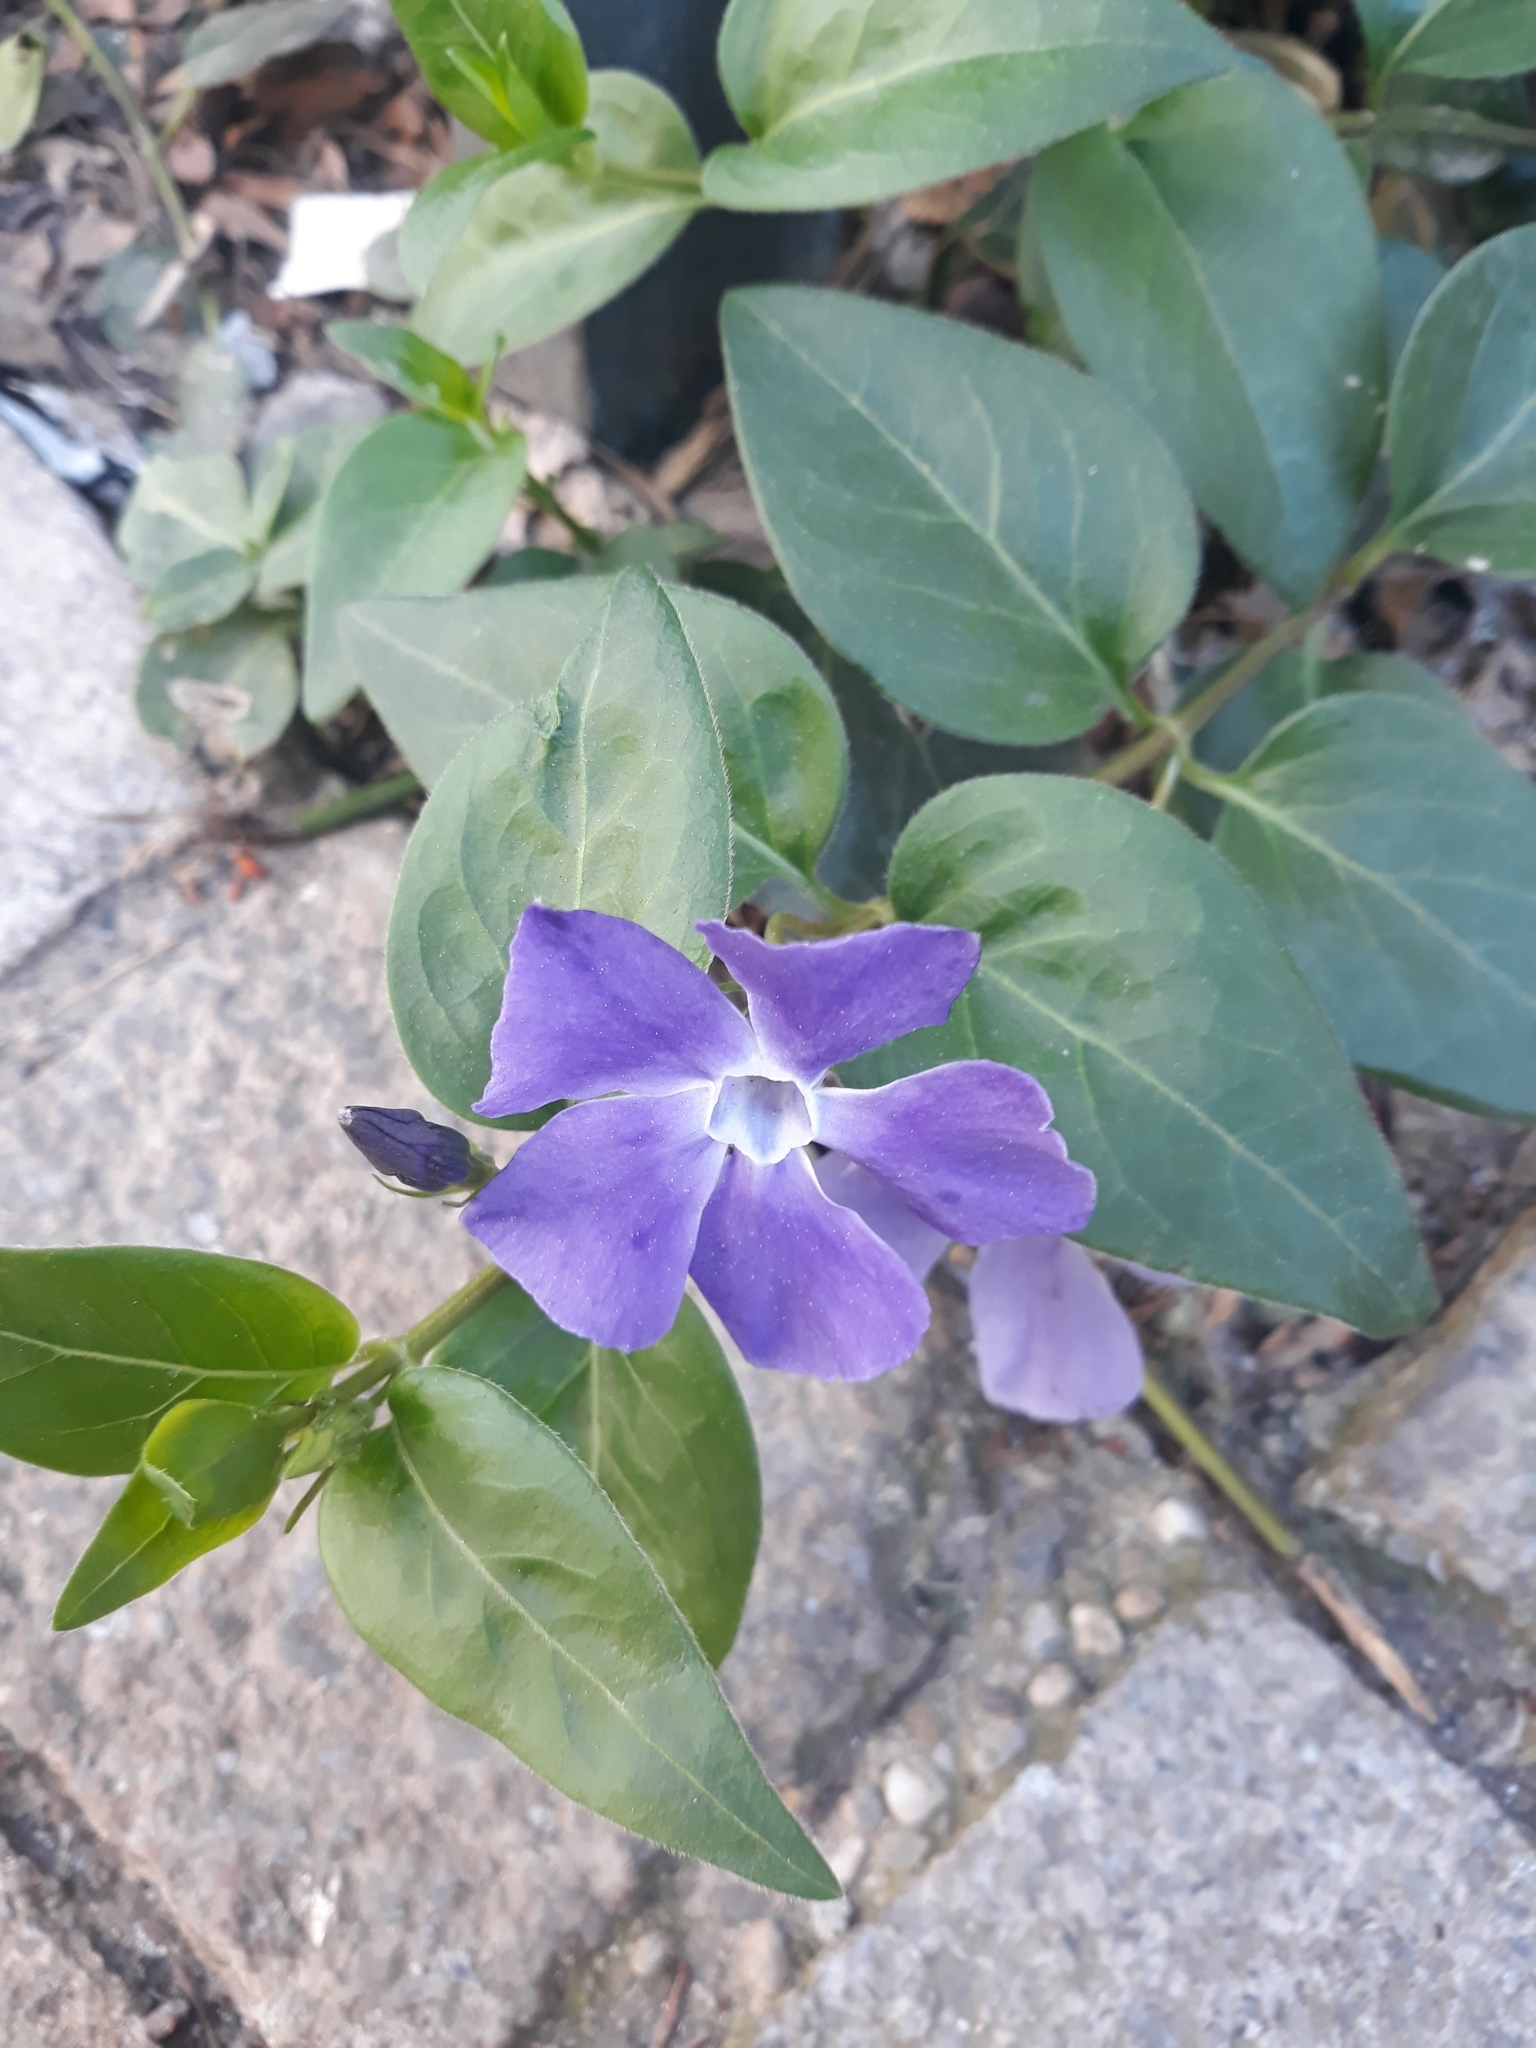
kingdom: Plantae
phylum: Tracheophyta
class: Magnoliopsida
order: Gentianales
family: Apocynaceae
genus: Vinca
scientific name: Vinca major
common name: Greater periwinkle
